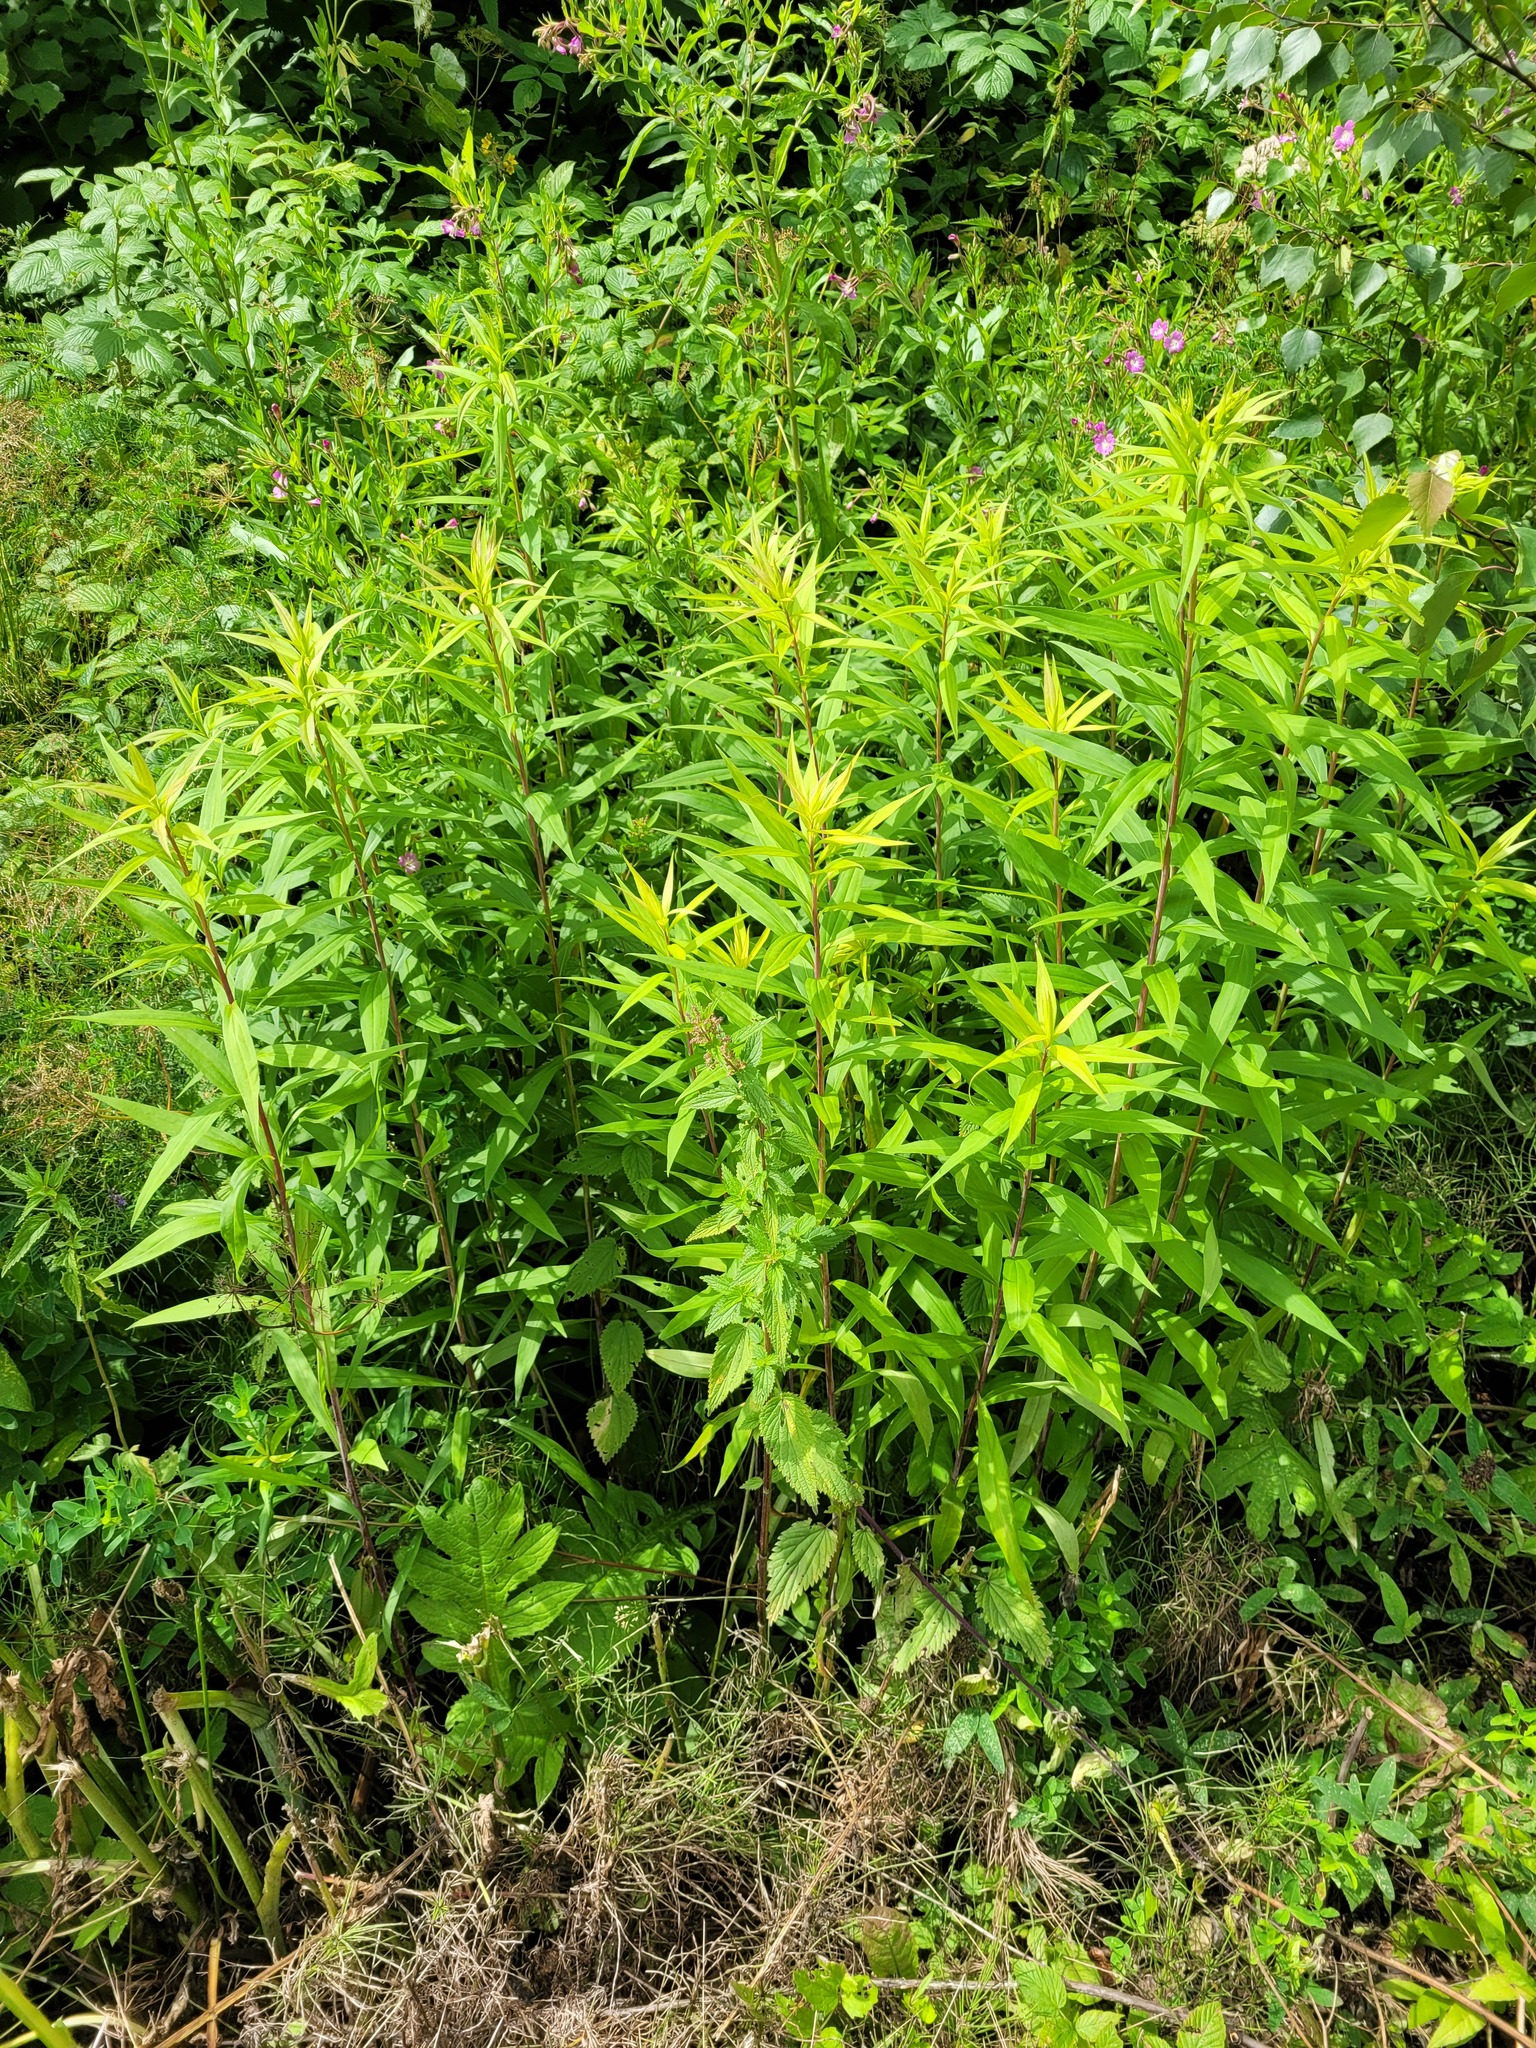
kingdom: Plantae
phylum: Tracheophyta
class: Magnoliopsida
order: Asterales
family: Asteraceae
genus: Solidago
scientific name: Solidago gigantea
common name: Giant goldenrod
